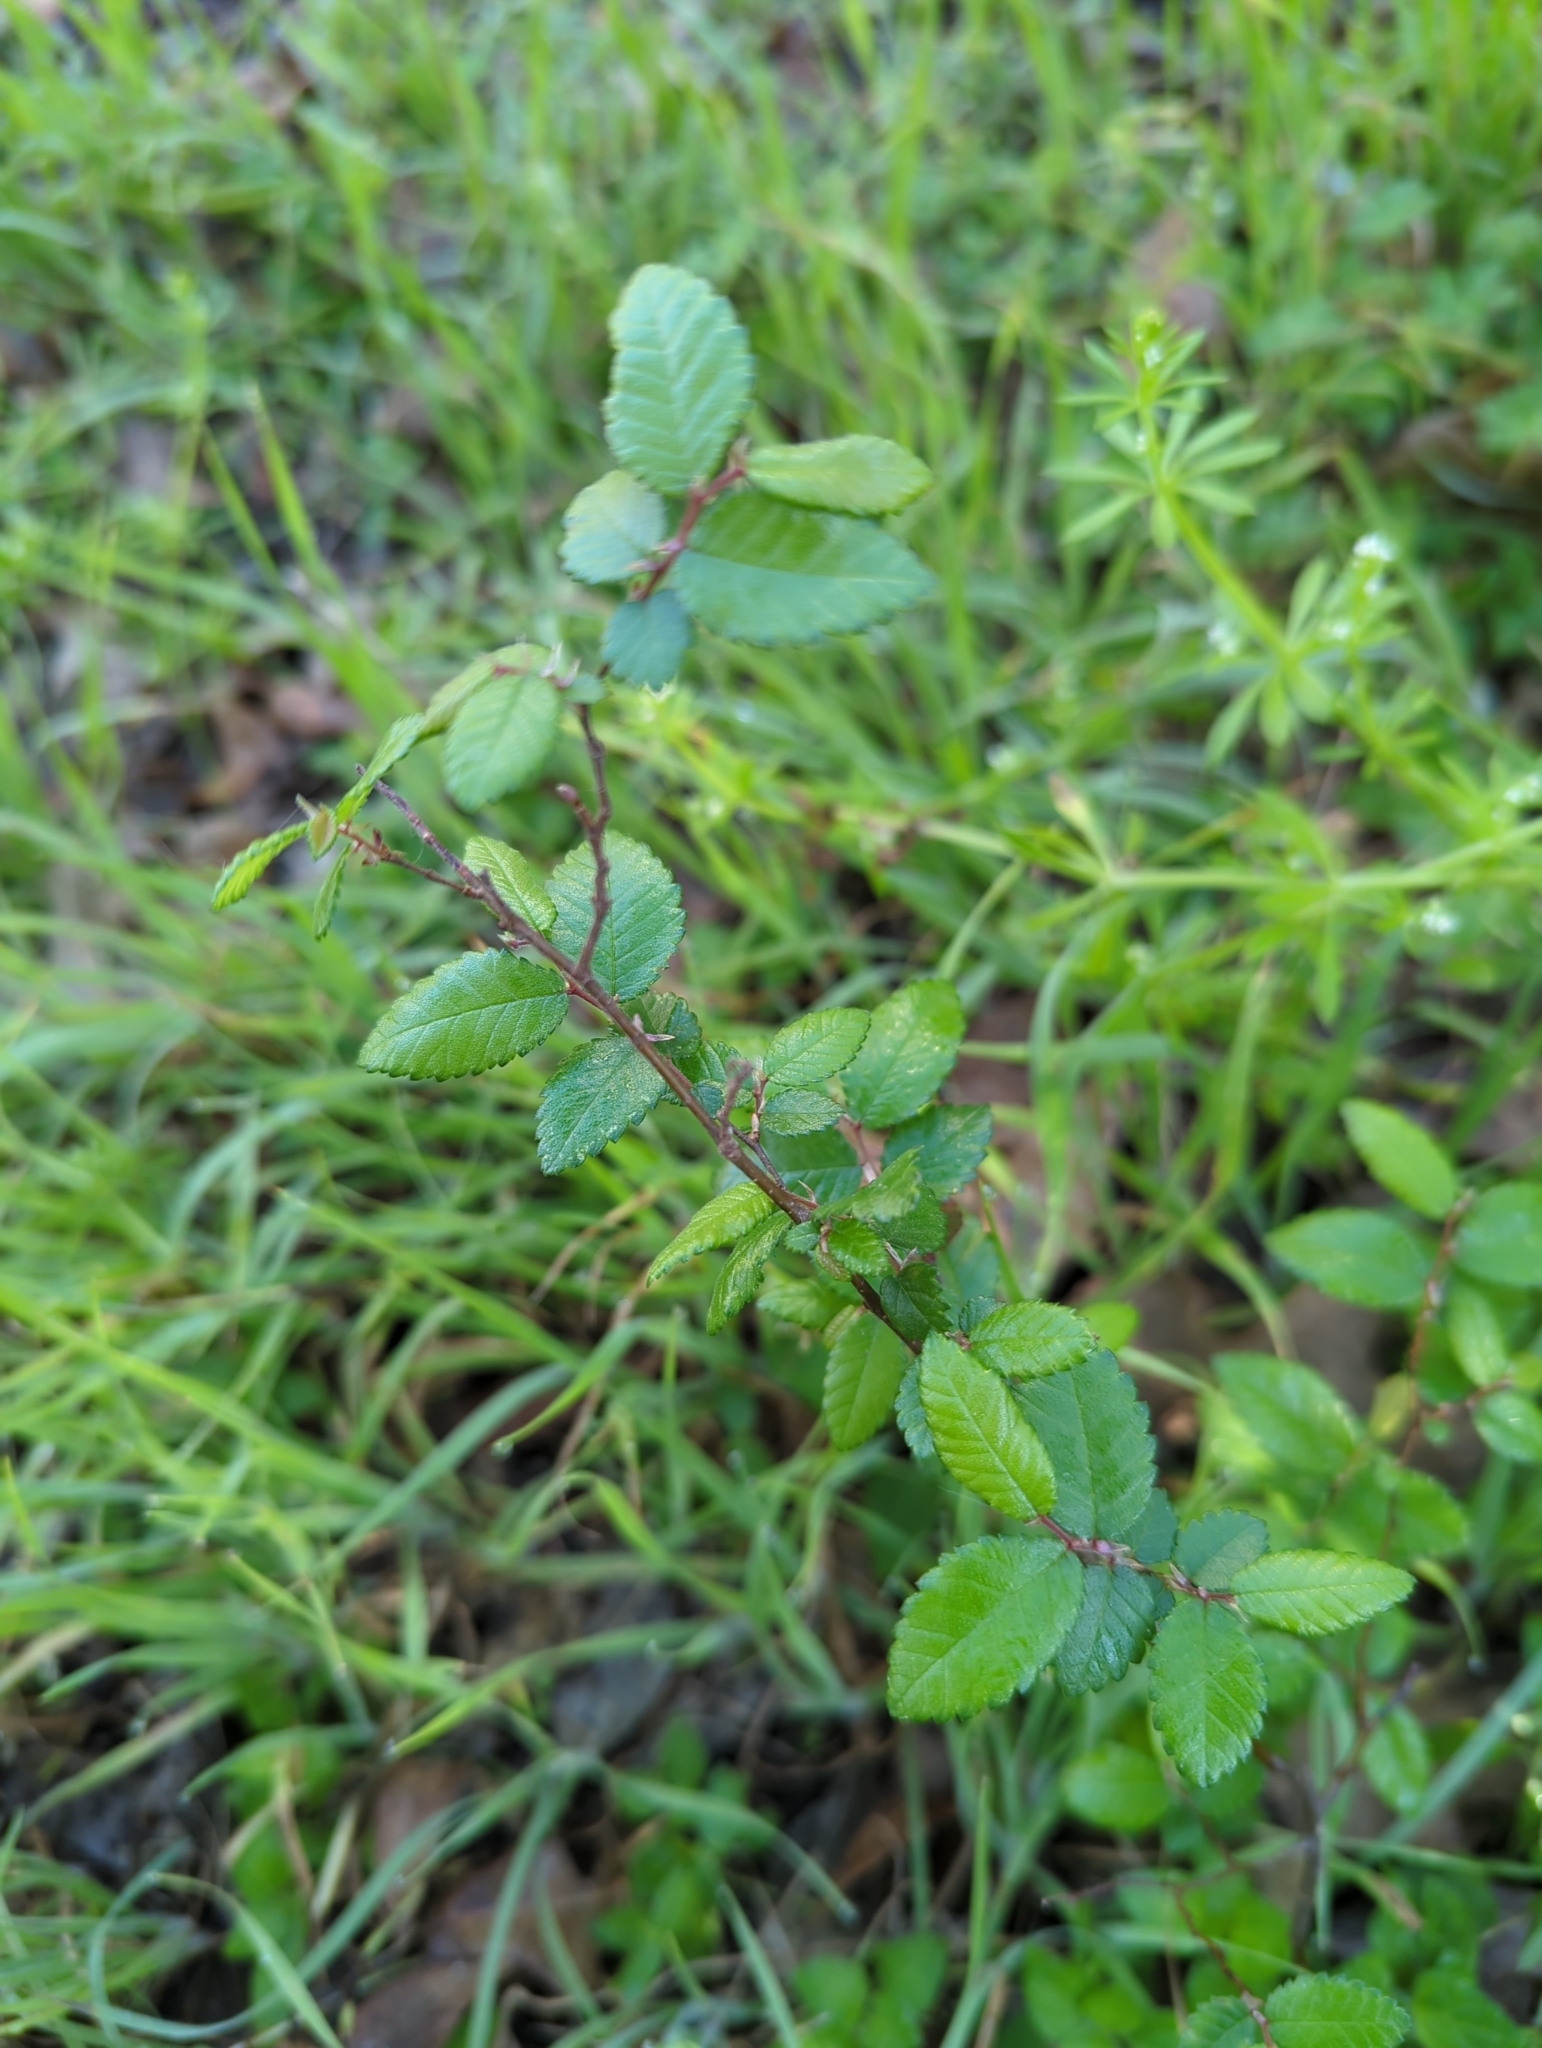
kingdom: Plantae
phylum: Tracheophyta
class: Magnoliopsida
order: Rosales
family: Ulmaceae
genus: Ulmus
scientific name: Ulmus crassifolia
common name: Basket elm
